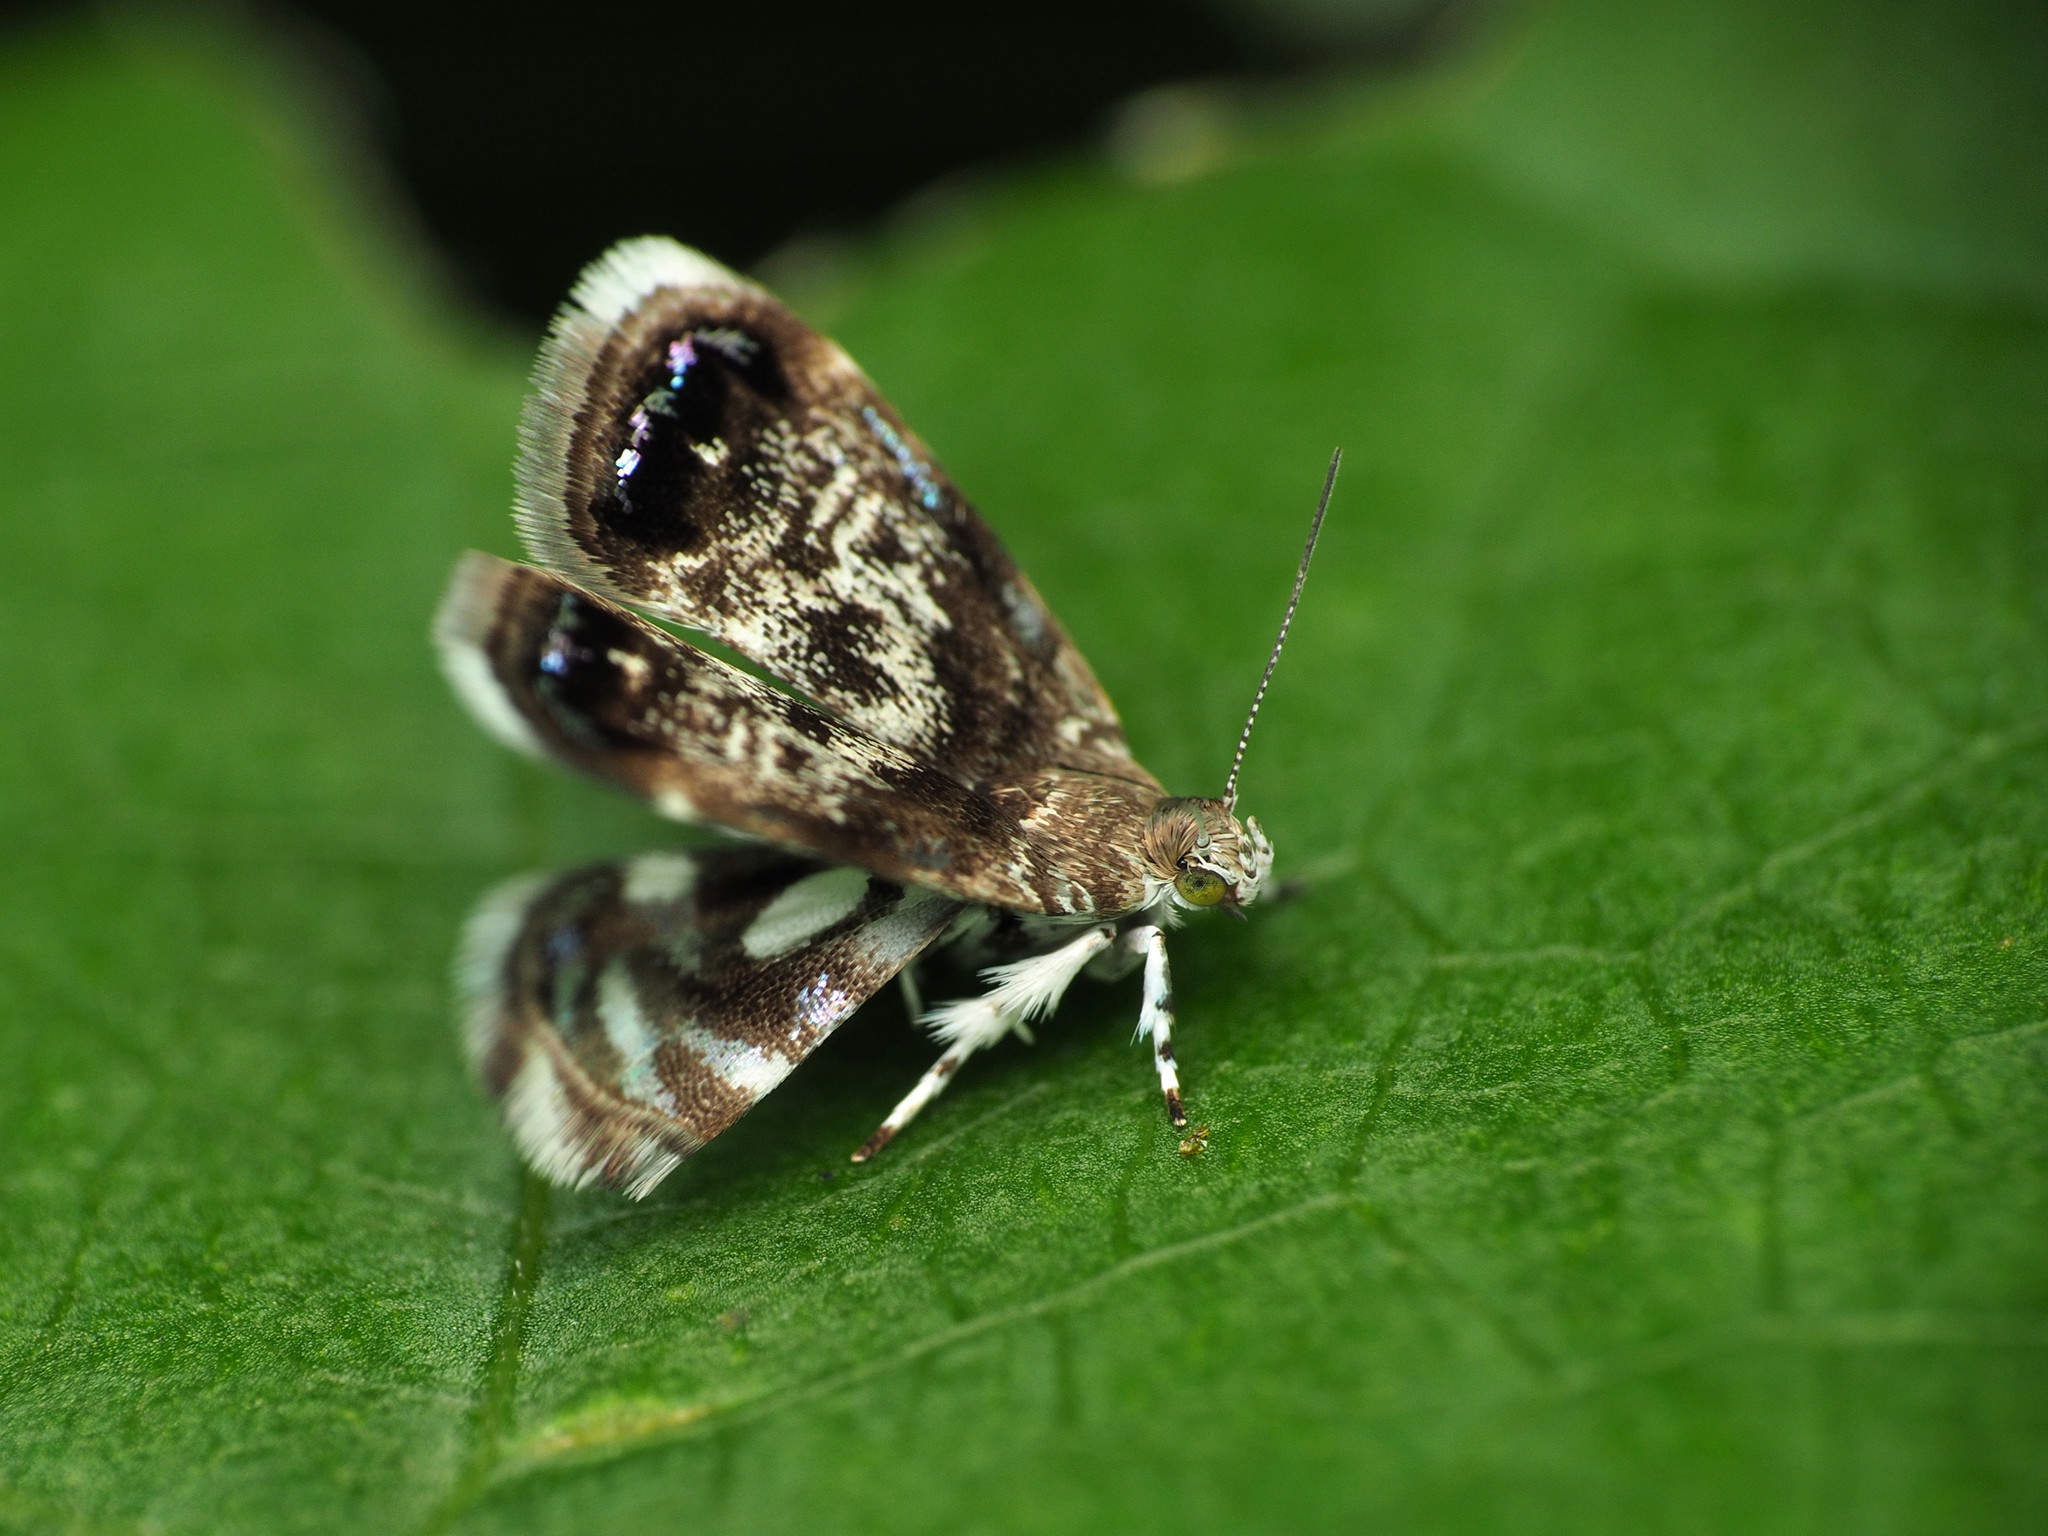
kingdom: Animalia
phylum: Arthropoda
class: Insecta
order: Lepidoptera
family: Choreutidae
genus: Brenthia
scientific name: Brenthia pavonacella
